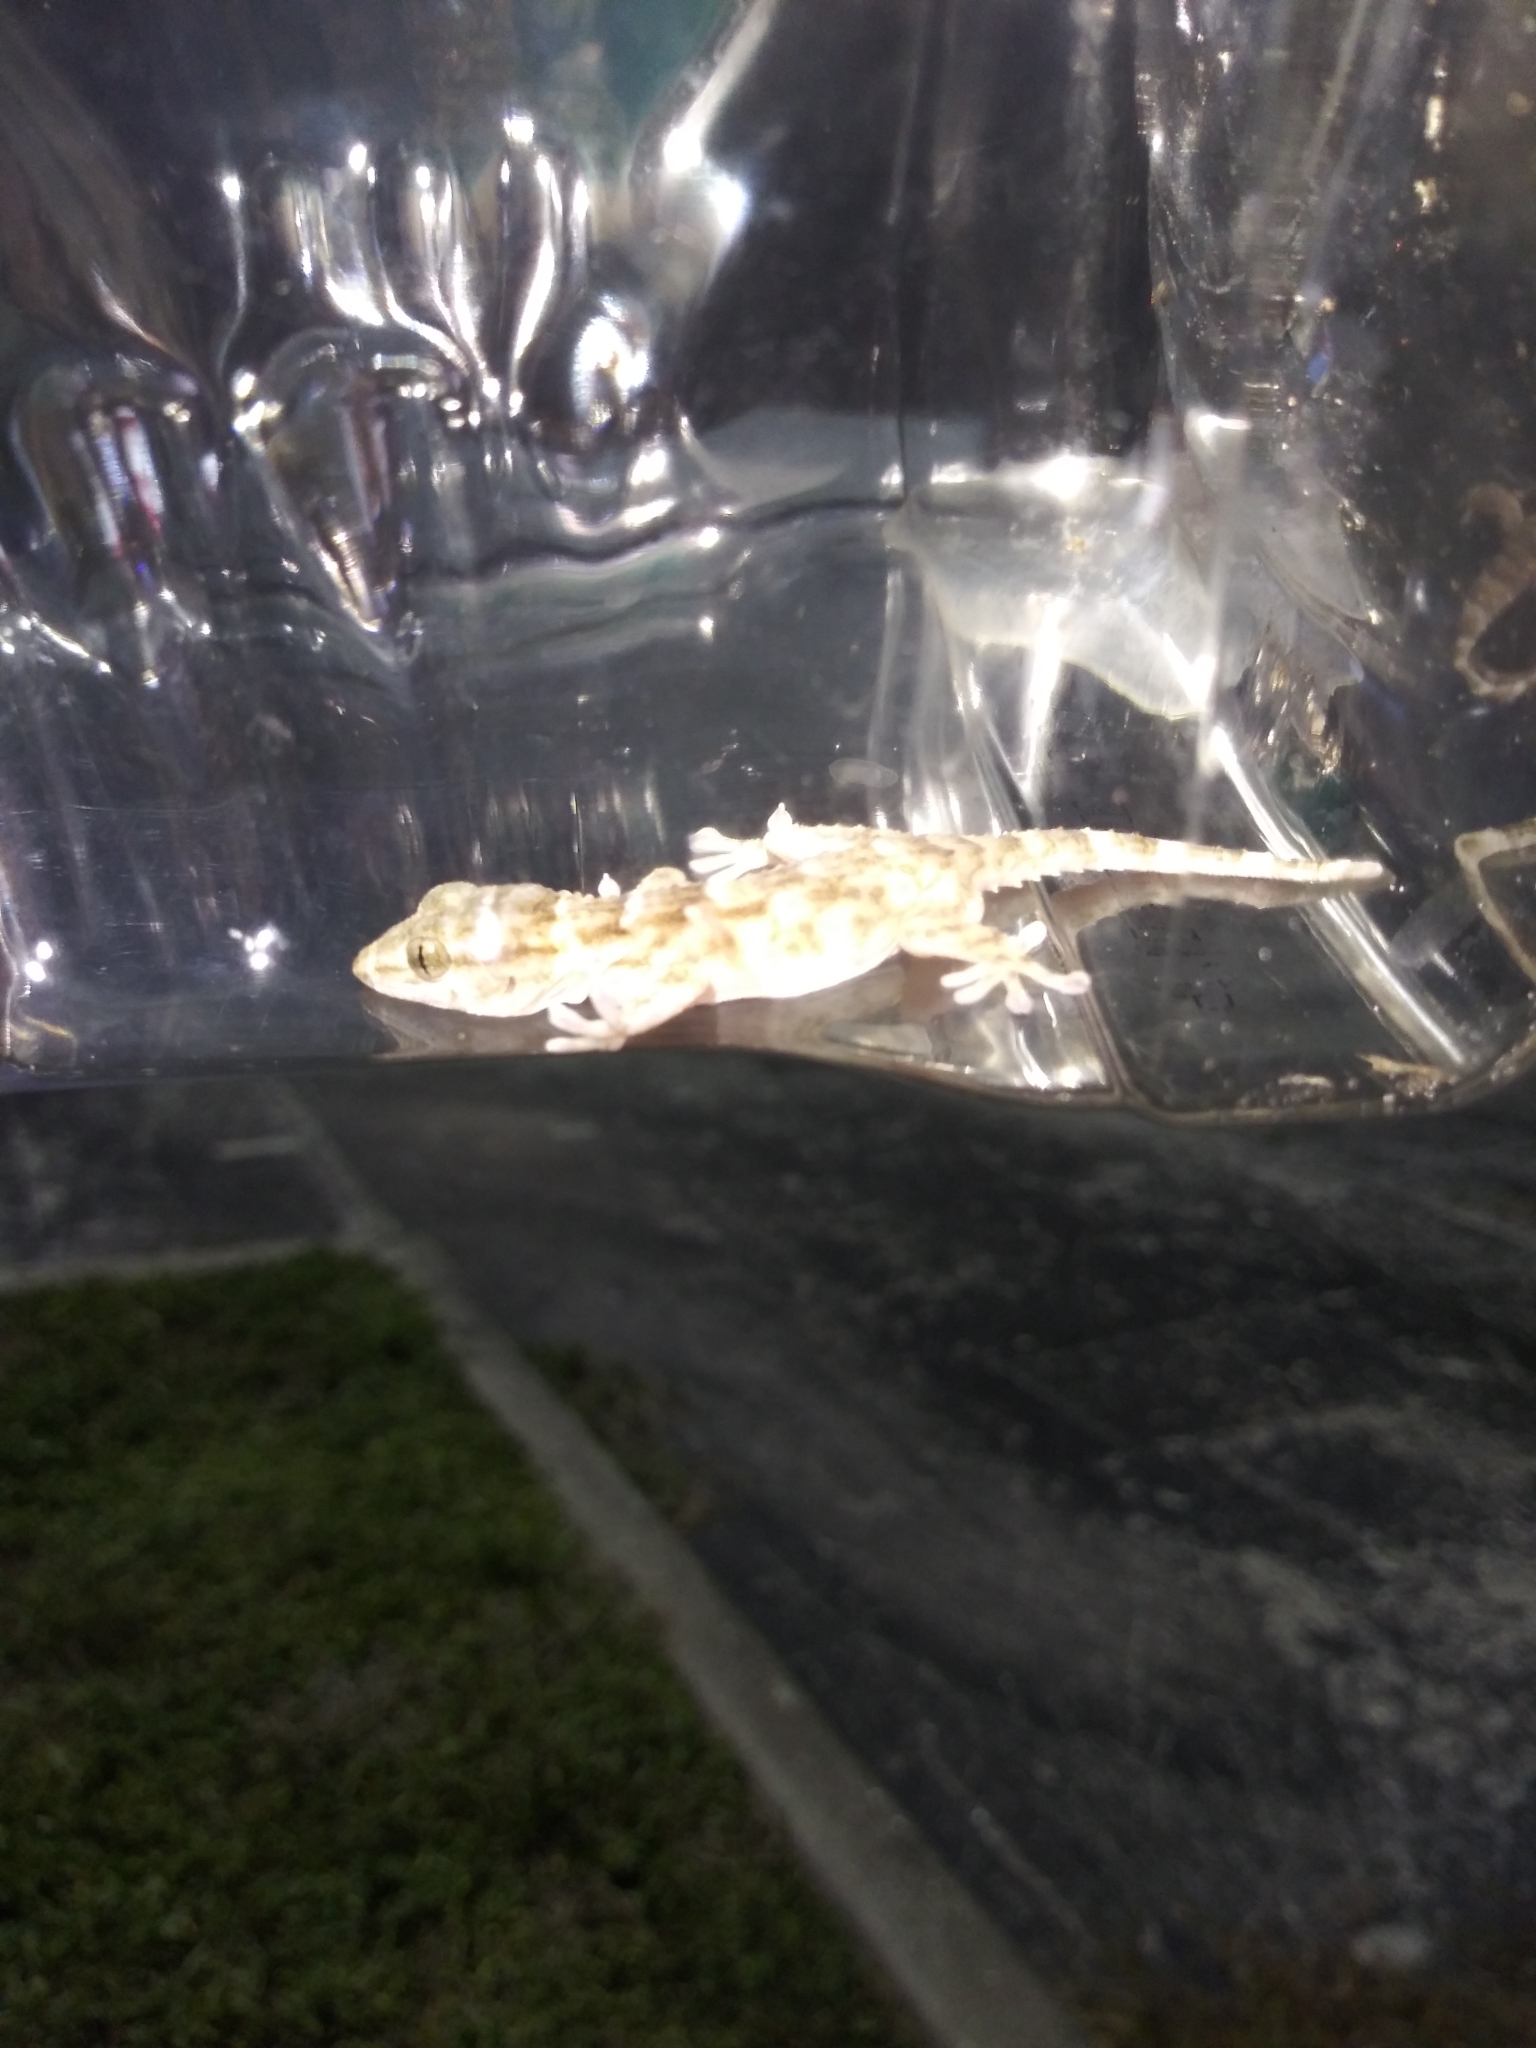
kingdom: Animalia
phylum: Chordata
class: Squamata
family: Phyllodactylidae
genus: Tarentola
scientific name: Tarentola annularis
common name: White-spotted wall gecko
